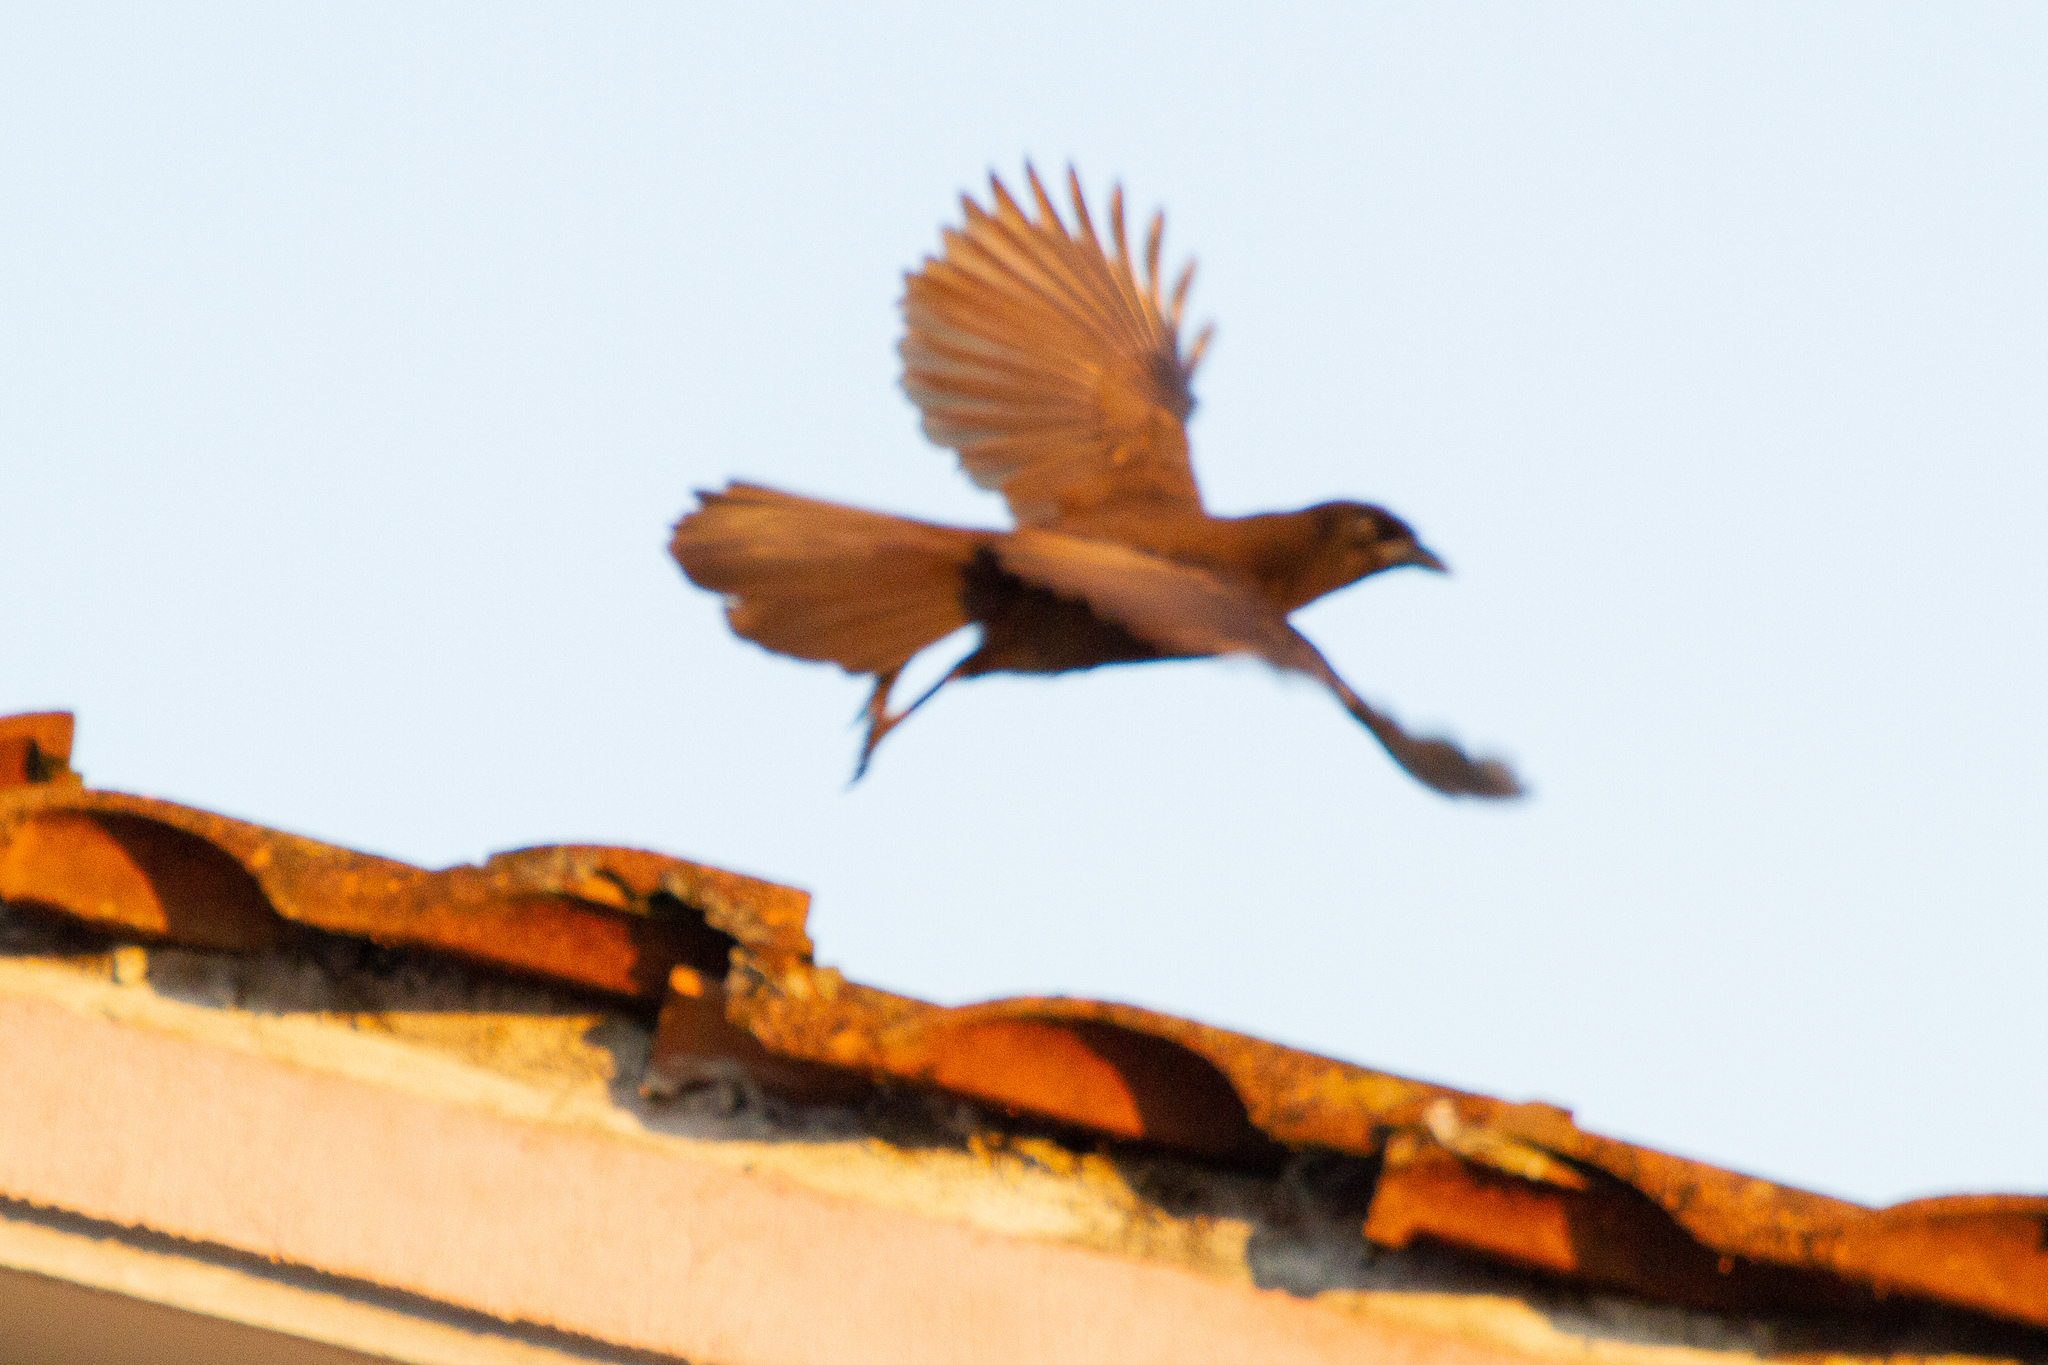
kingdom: Animalia
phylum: Chordata
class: Aves
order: Passeriformes
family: Corvidae
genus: Psilorhinus
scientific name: Psilorhinus morio
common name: Brown jay
